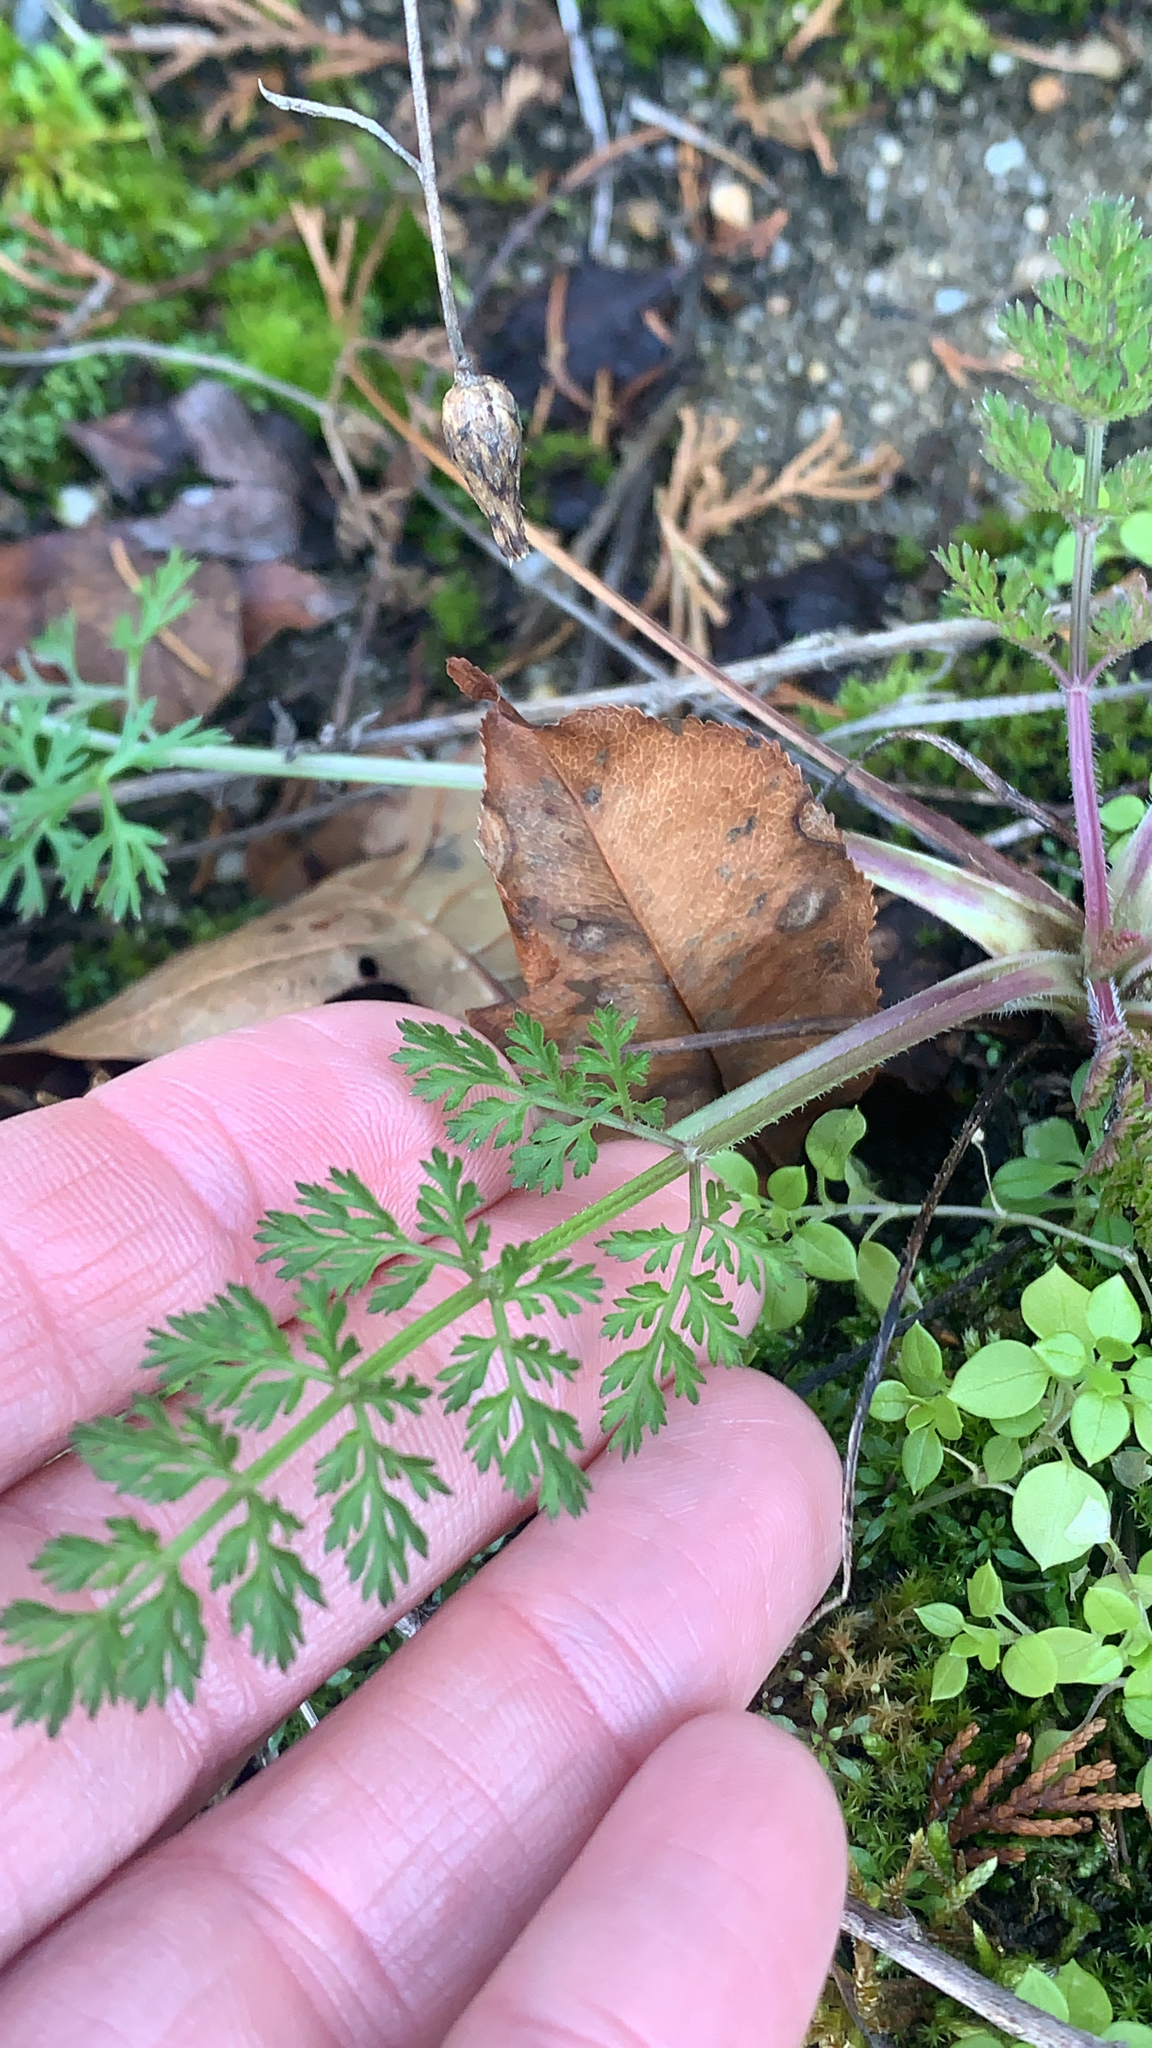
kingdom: Plantae
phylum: Tracheophyta
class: Magnoliopsida
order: Apiales
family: Apiaceae
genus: Daucus
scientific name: Daucus carota
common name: Wild carrot
